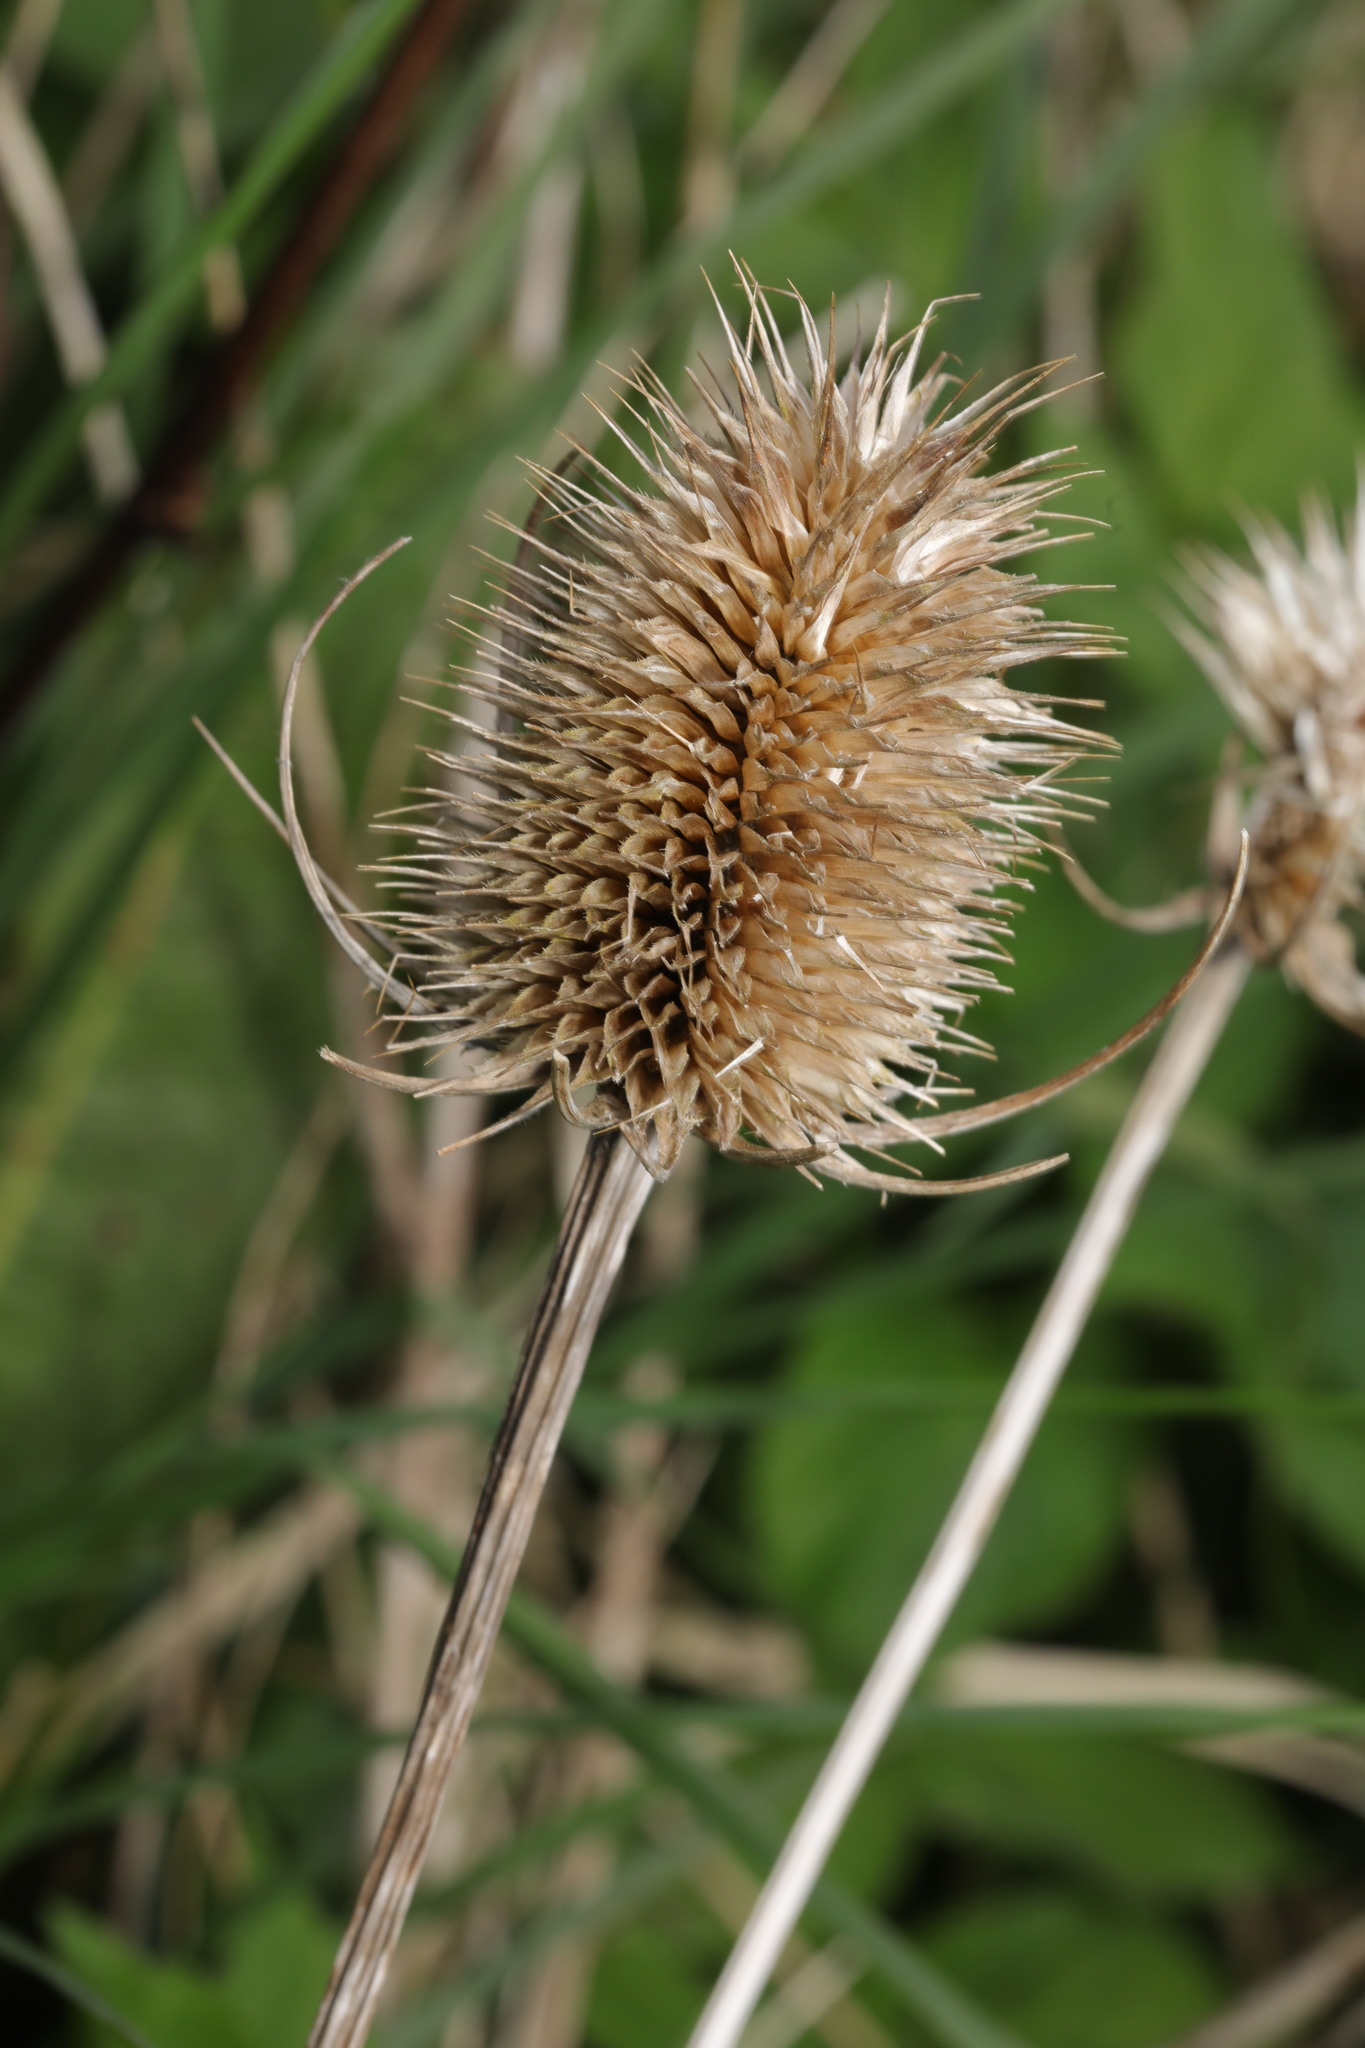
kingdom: Plantae
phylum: Tracheophyta
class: Magnoliopsida
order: Dipsacales
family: Caprifoliaceae
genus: Dipsacus
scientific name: Dipsacus fullonum
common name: Teasel
